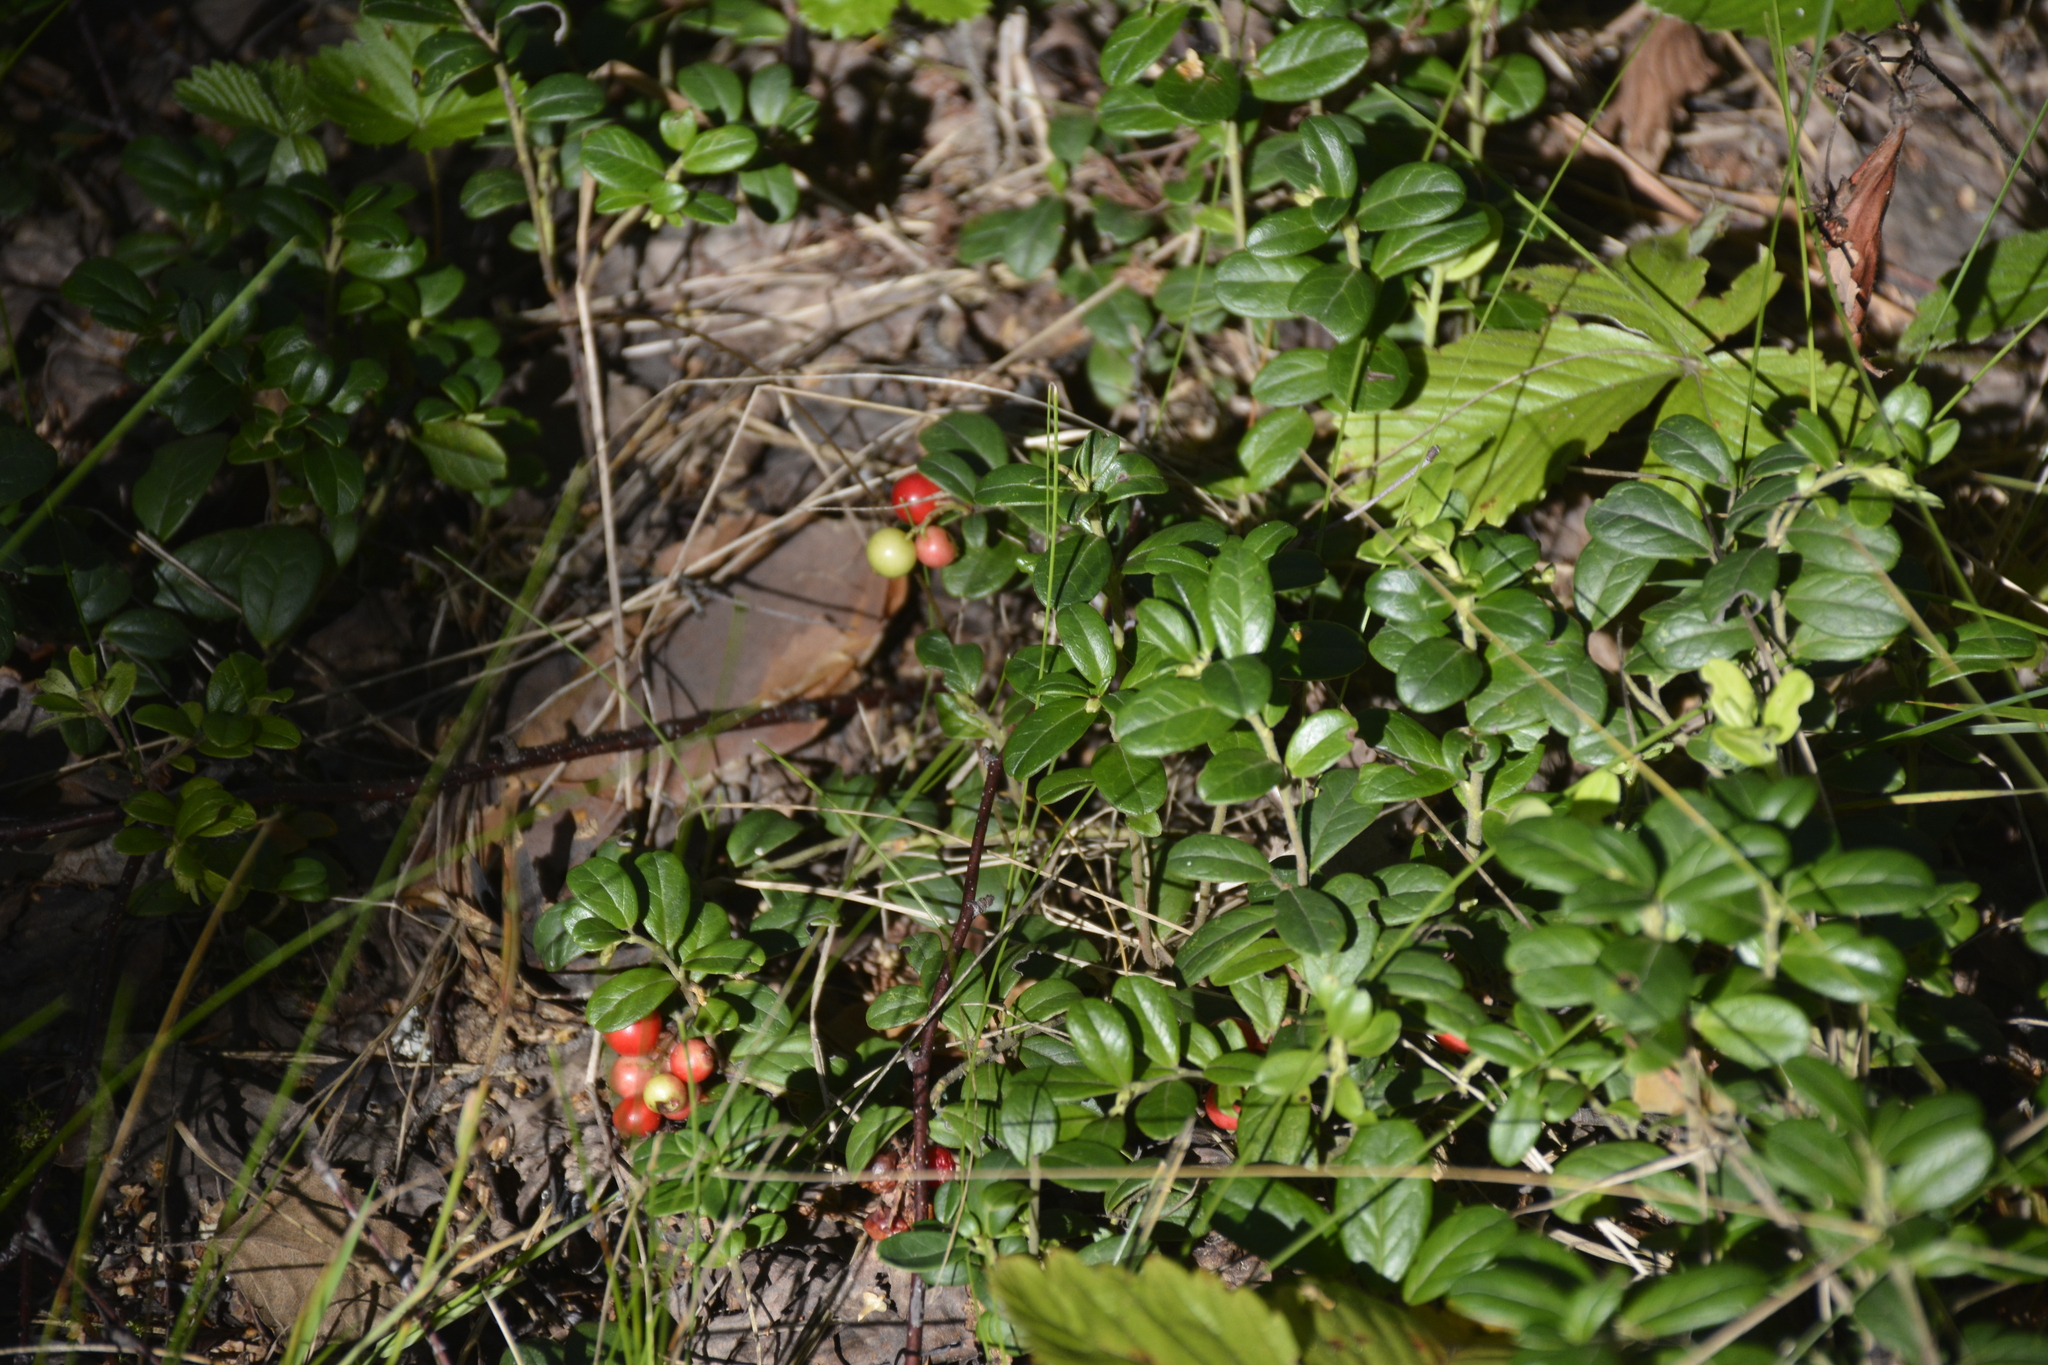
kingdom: Plantae
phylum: Tracheophyta
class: Magnoliopsida
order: Ericales
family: Ericaceae
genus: Vaccinium
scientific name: Vaccinium vitis-idaea
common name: Cowberry
